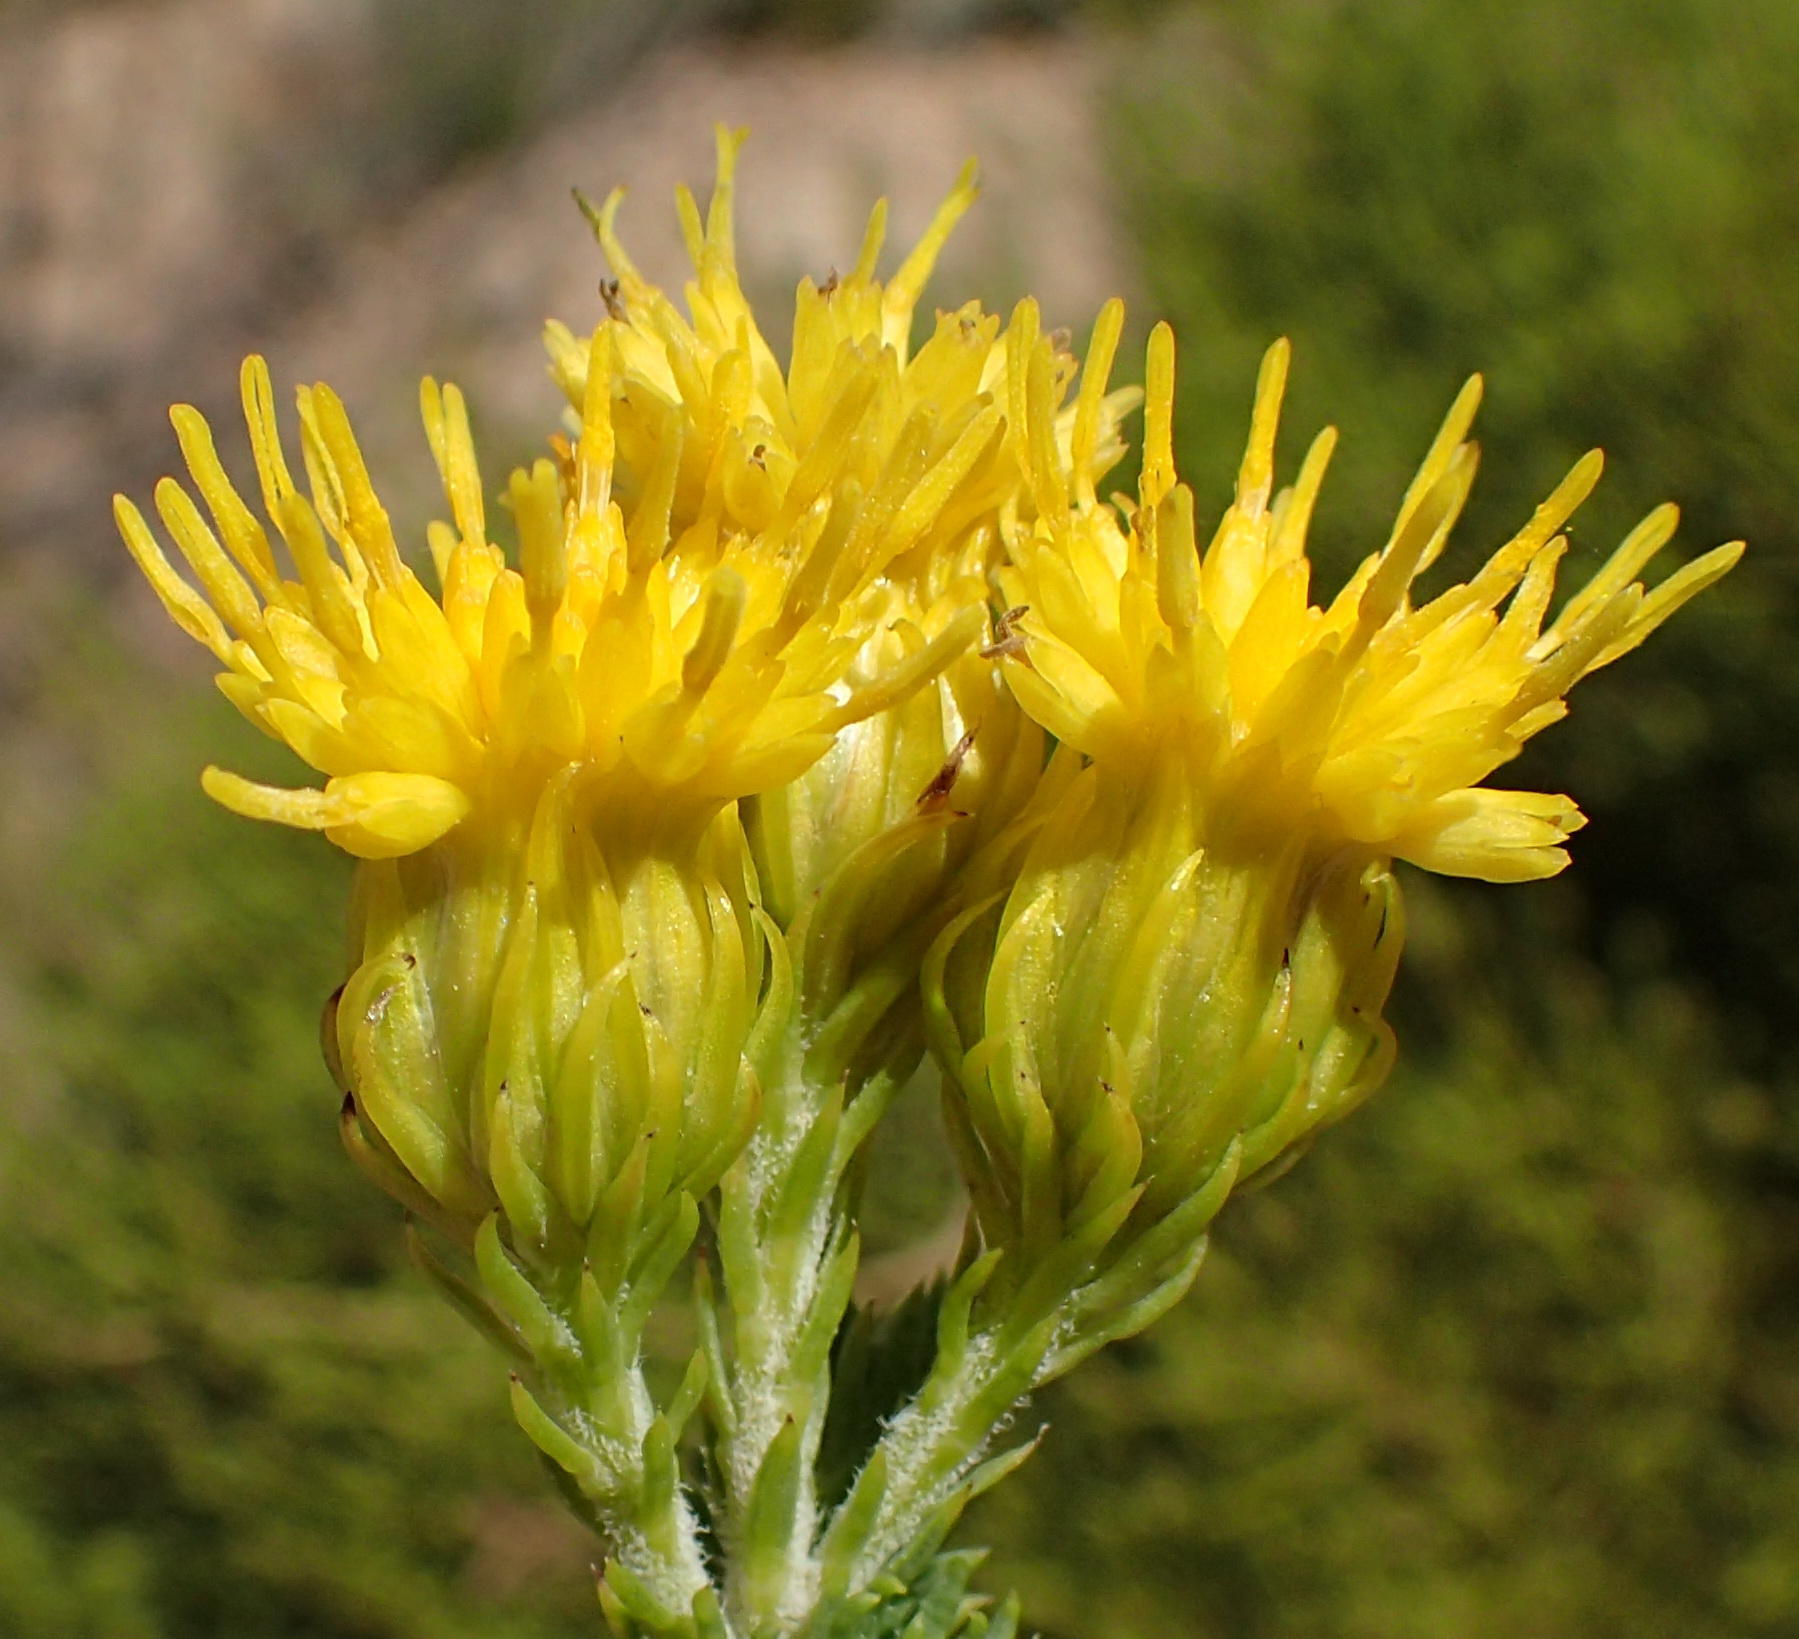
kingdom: Plantae
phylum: Tracheophyta
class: Magnoliopsida
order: Asterales
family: Asteraceae
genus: Pteronia
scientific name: Pteronia camphorata
